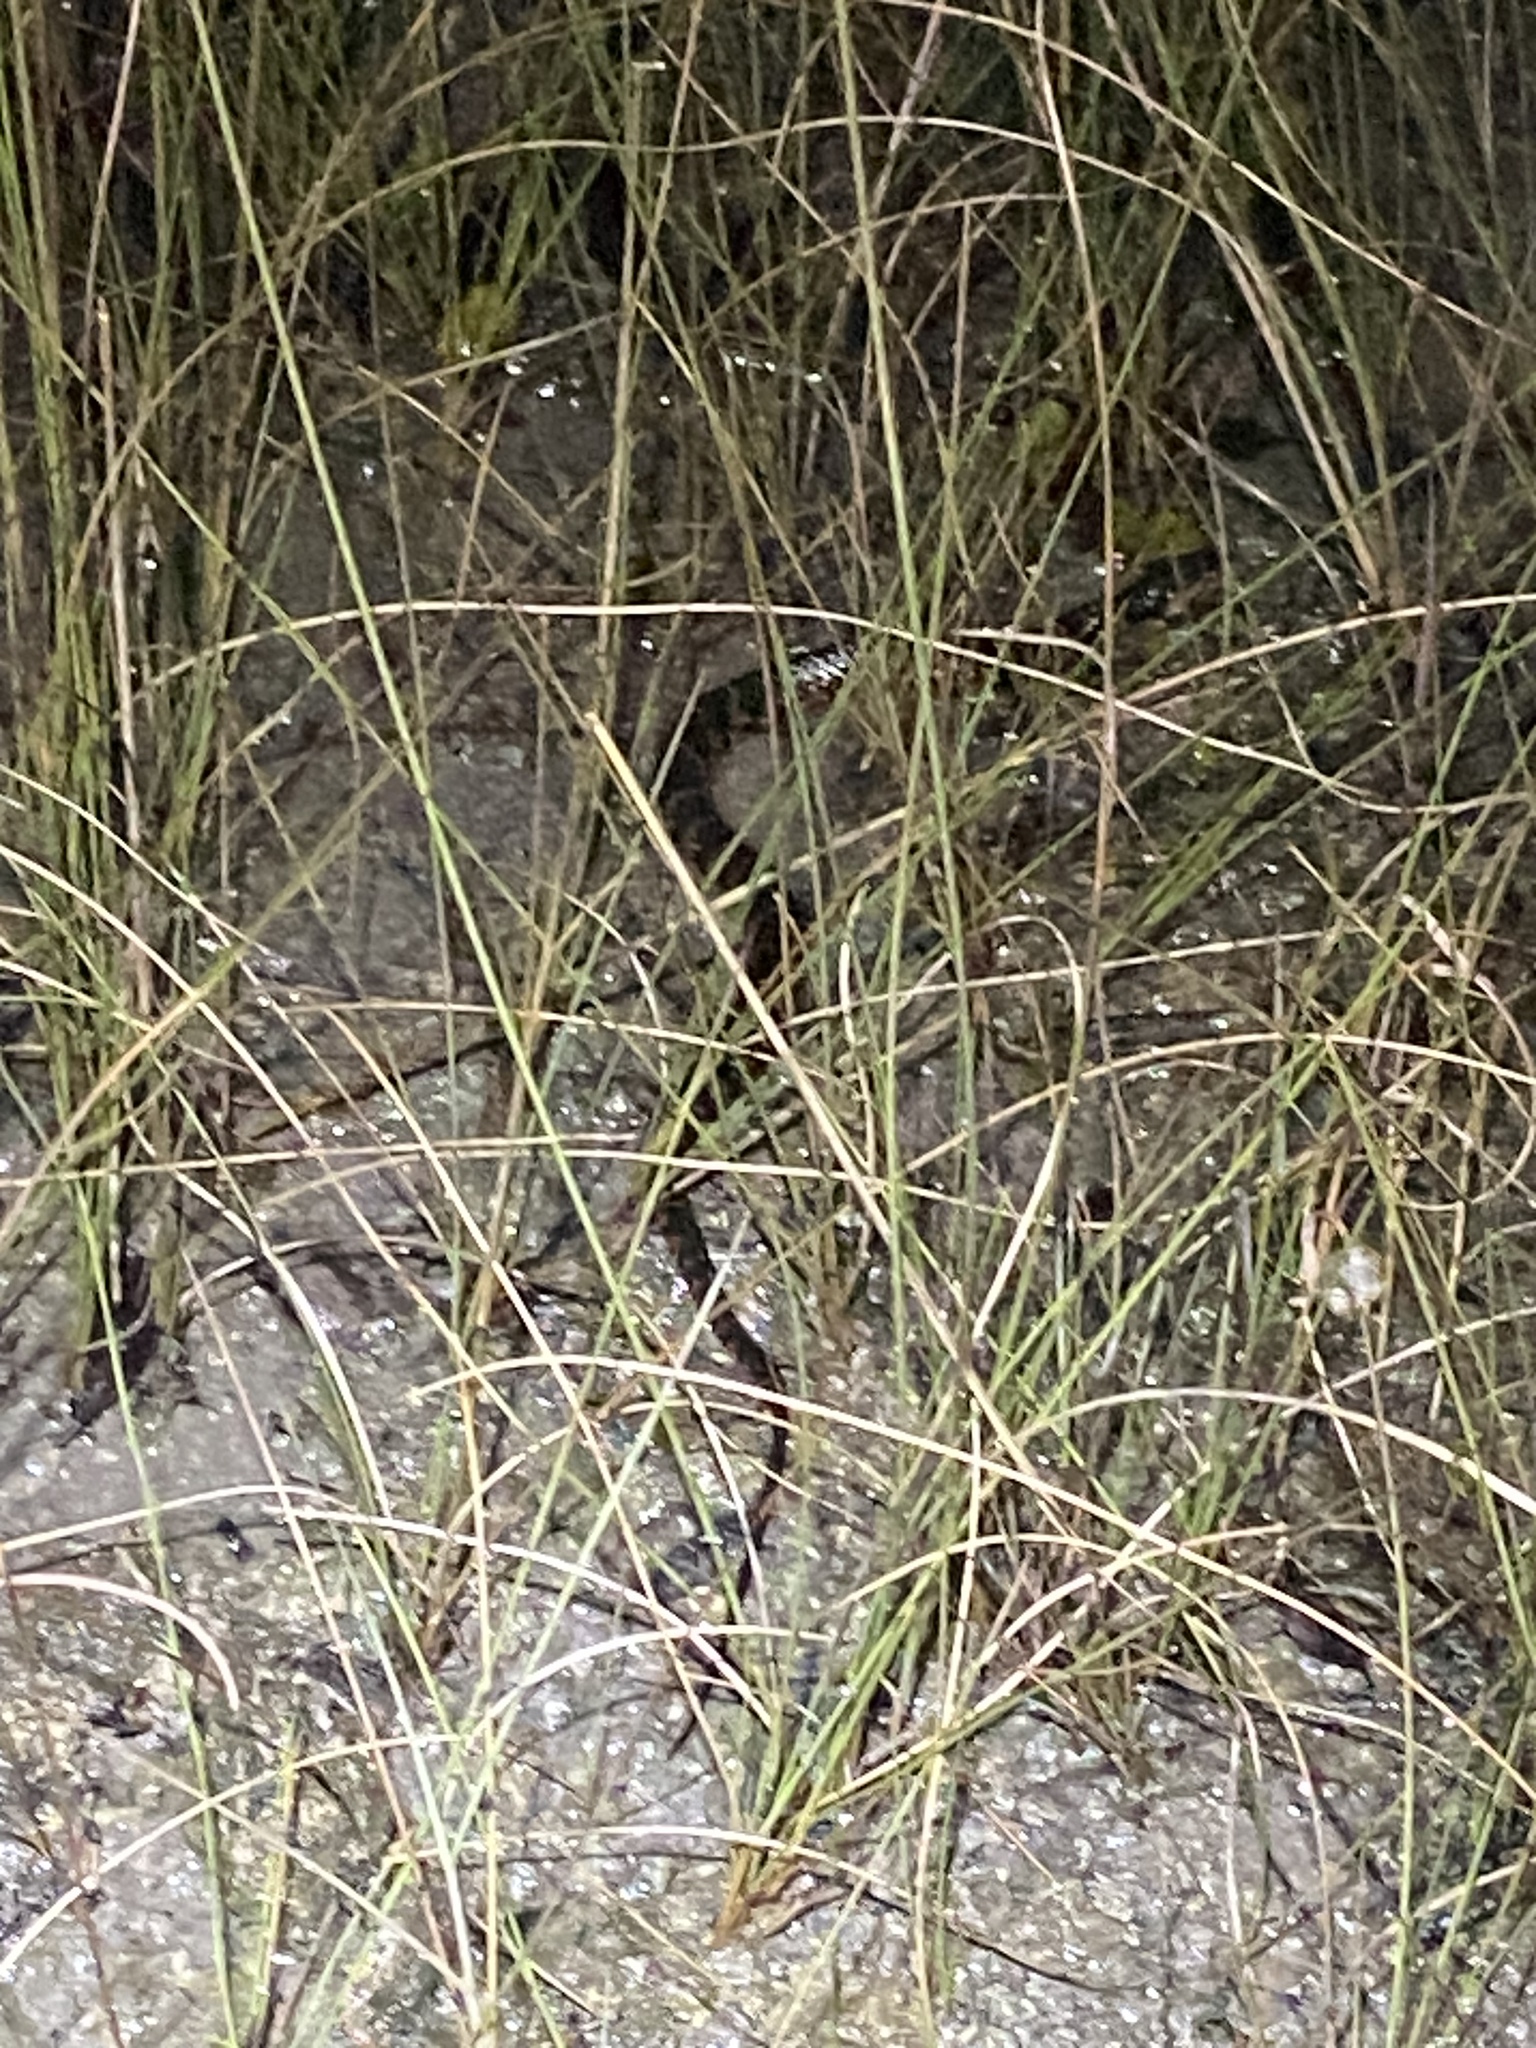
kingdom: Animalia
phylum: Chordata
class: Squamata
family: Colubridae
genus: Nerodia
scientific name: Nerodia fasciata
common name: Southern water snake
